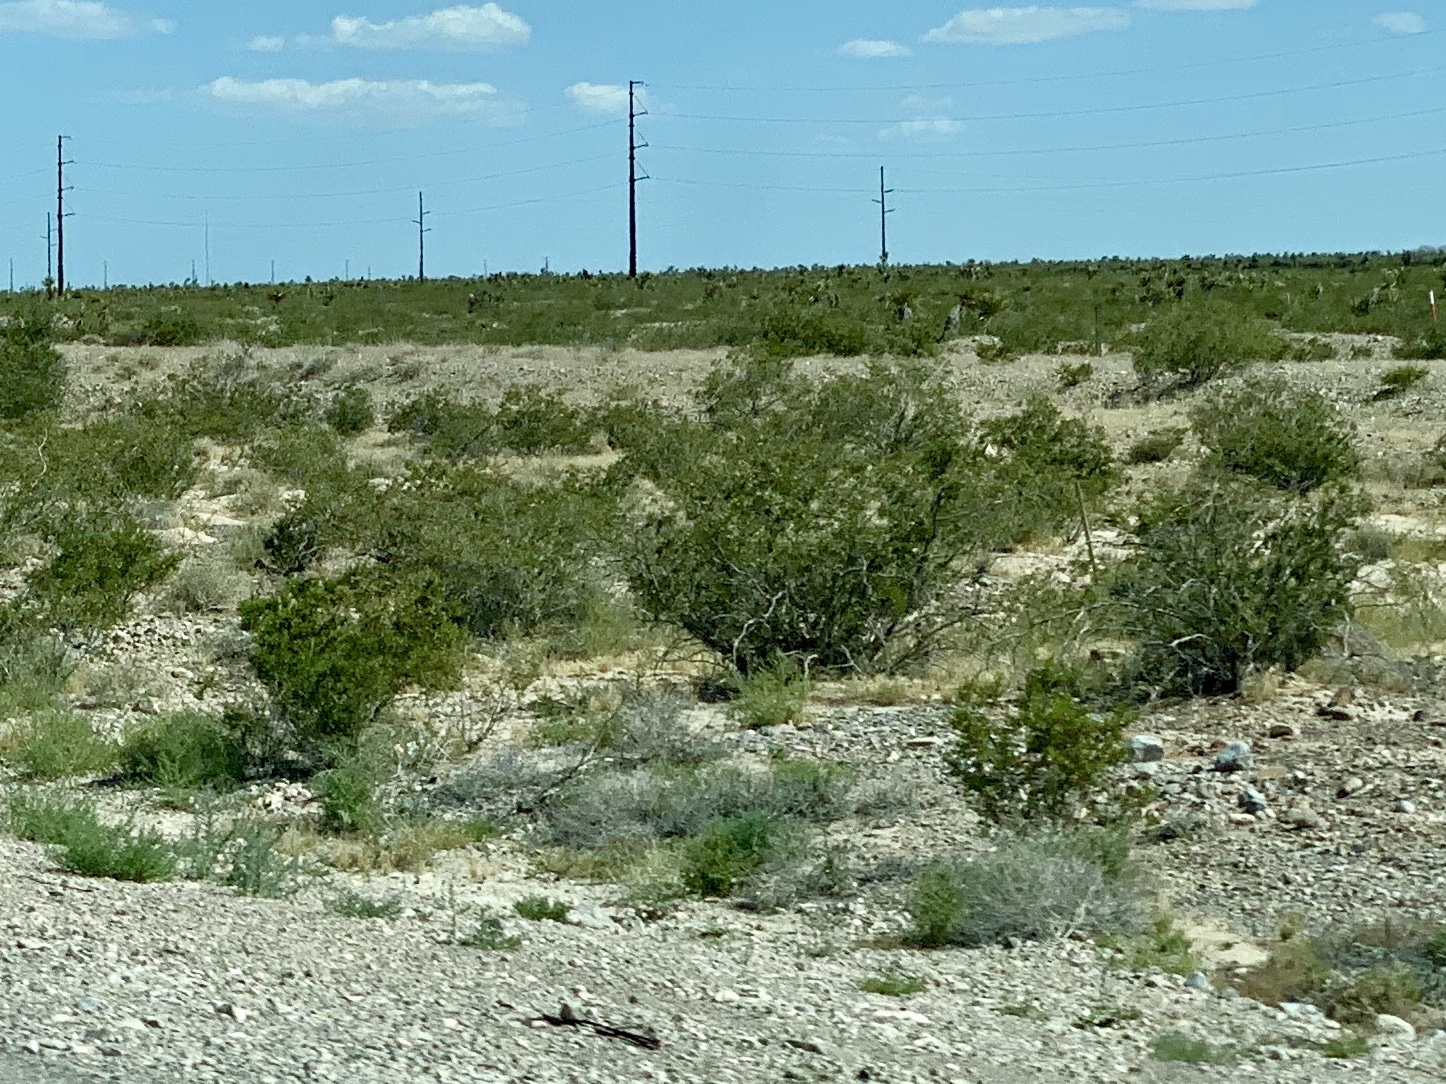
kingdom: Plantae
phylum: Tracheophyta
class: Magnoliopsida
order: Zygophyllales
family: Zygophyllaceae
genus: Larrea
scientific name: Larrea tridentata
